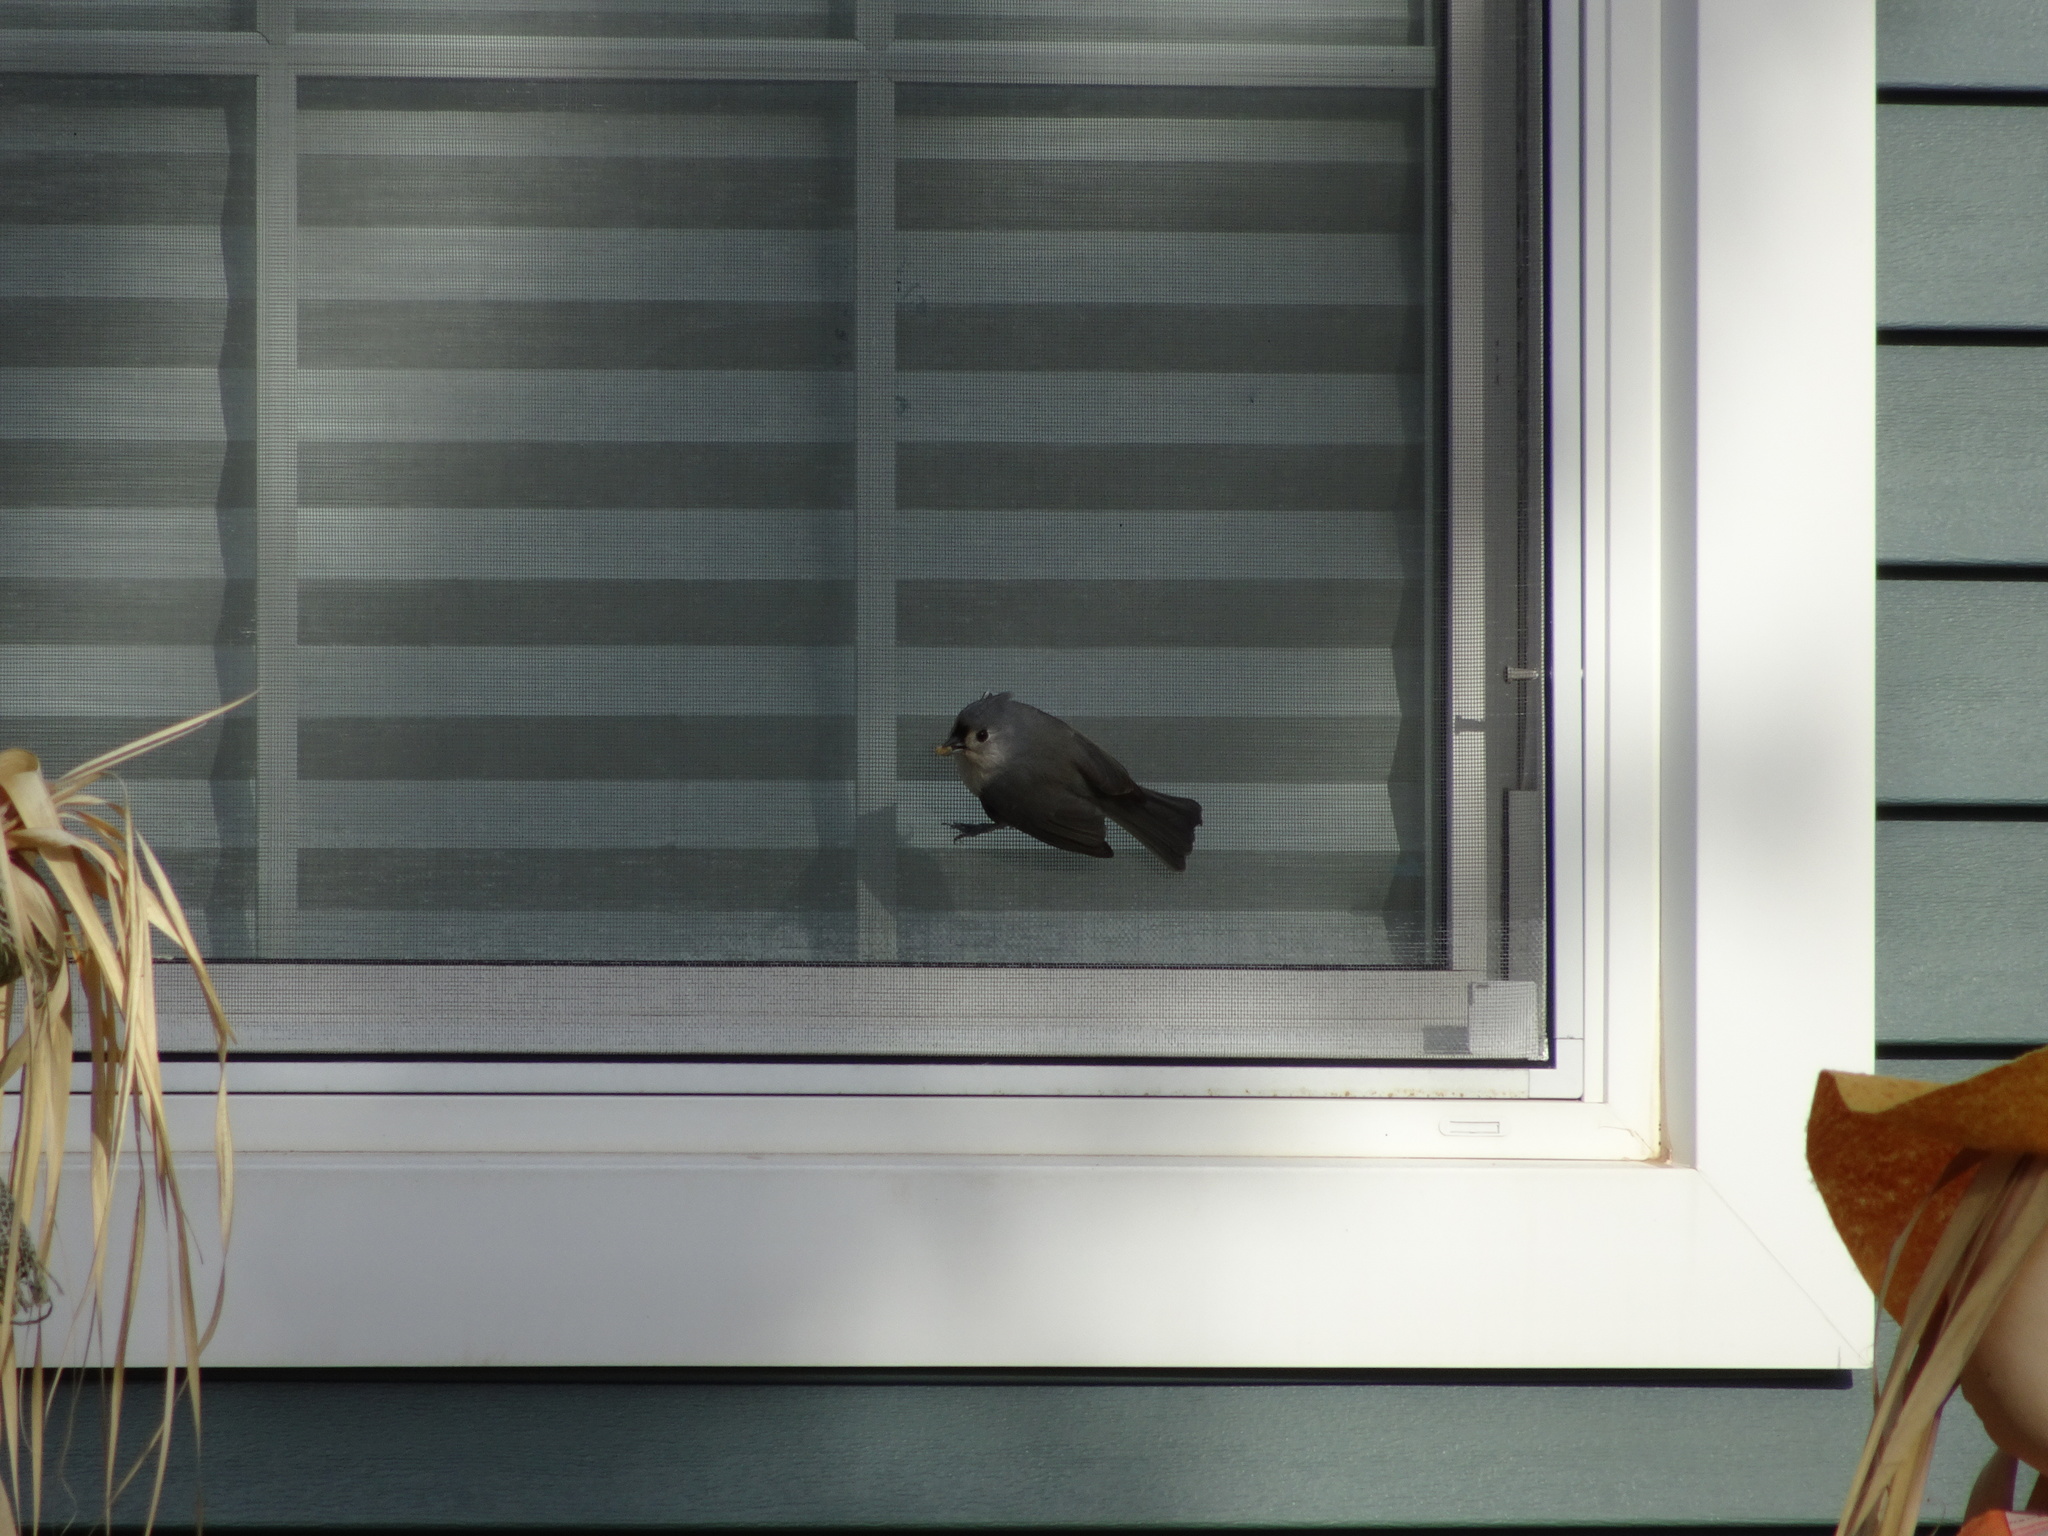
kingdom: Animalia
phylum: Chordata
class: Aves
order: Passeriformes
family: Paridae
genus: Baeolophus
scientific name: Baeolophus bicolor
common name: Tufted titmouse
